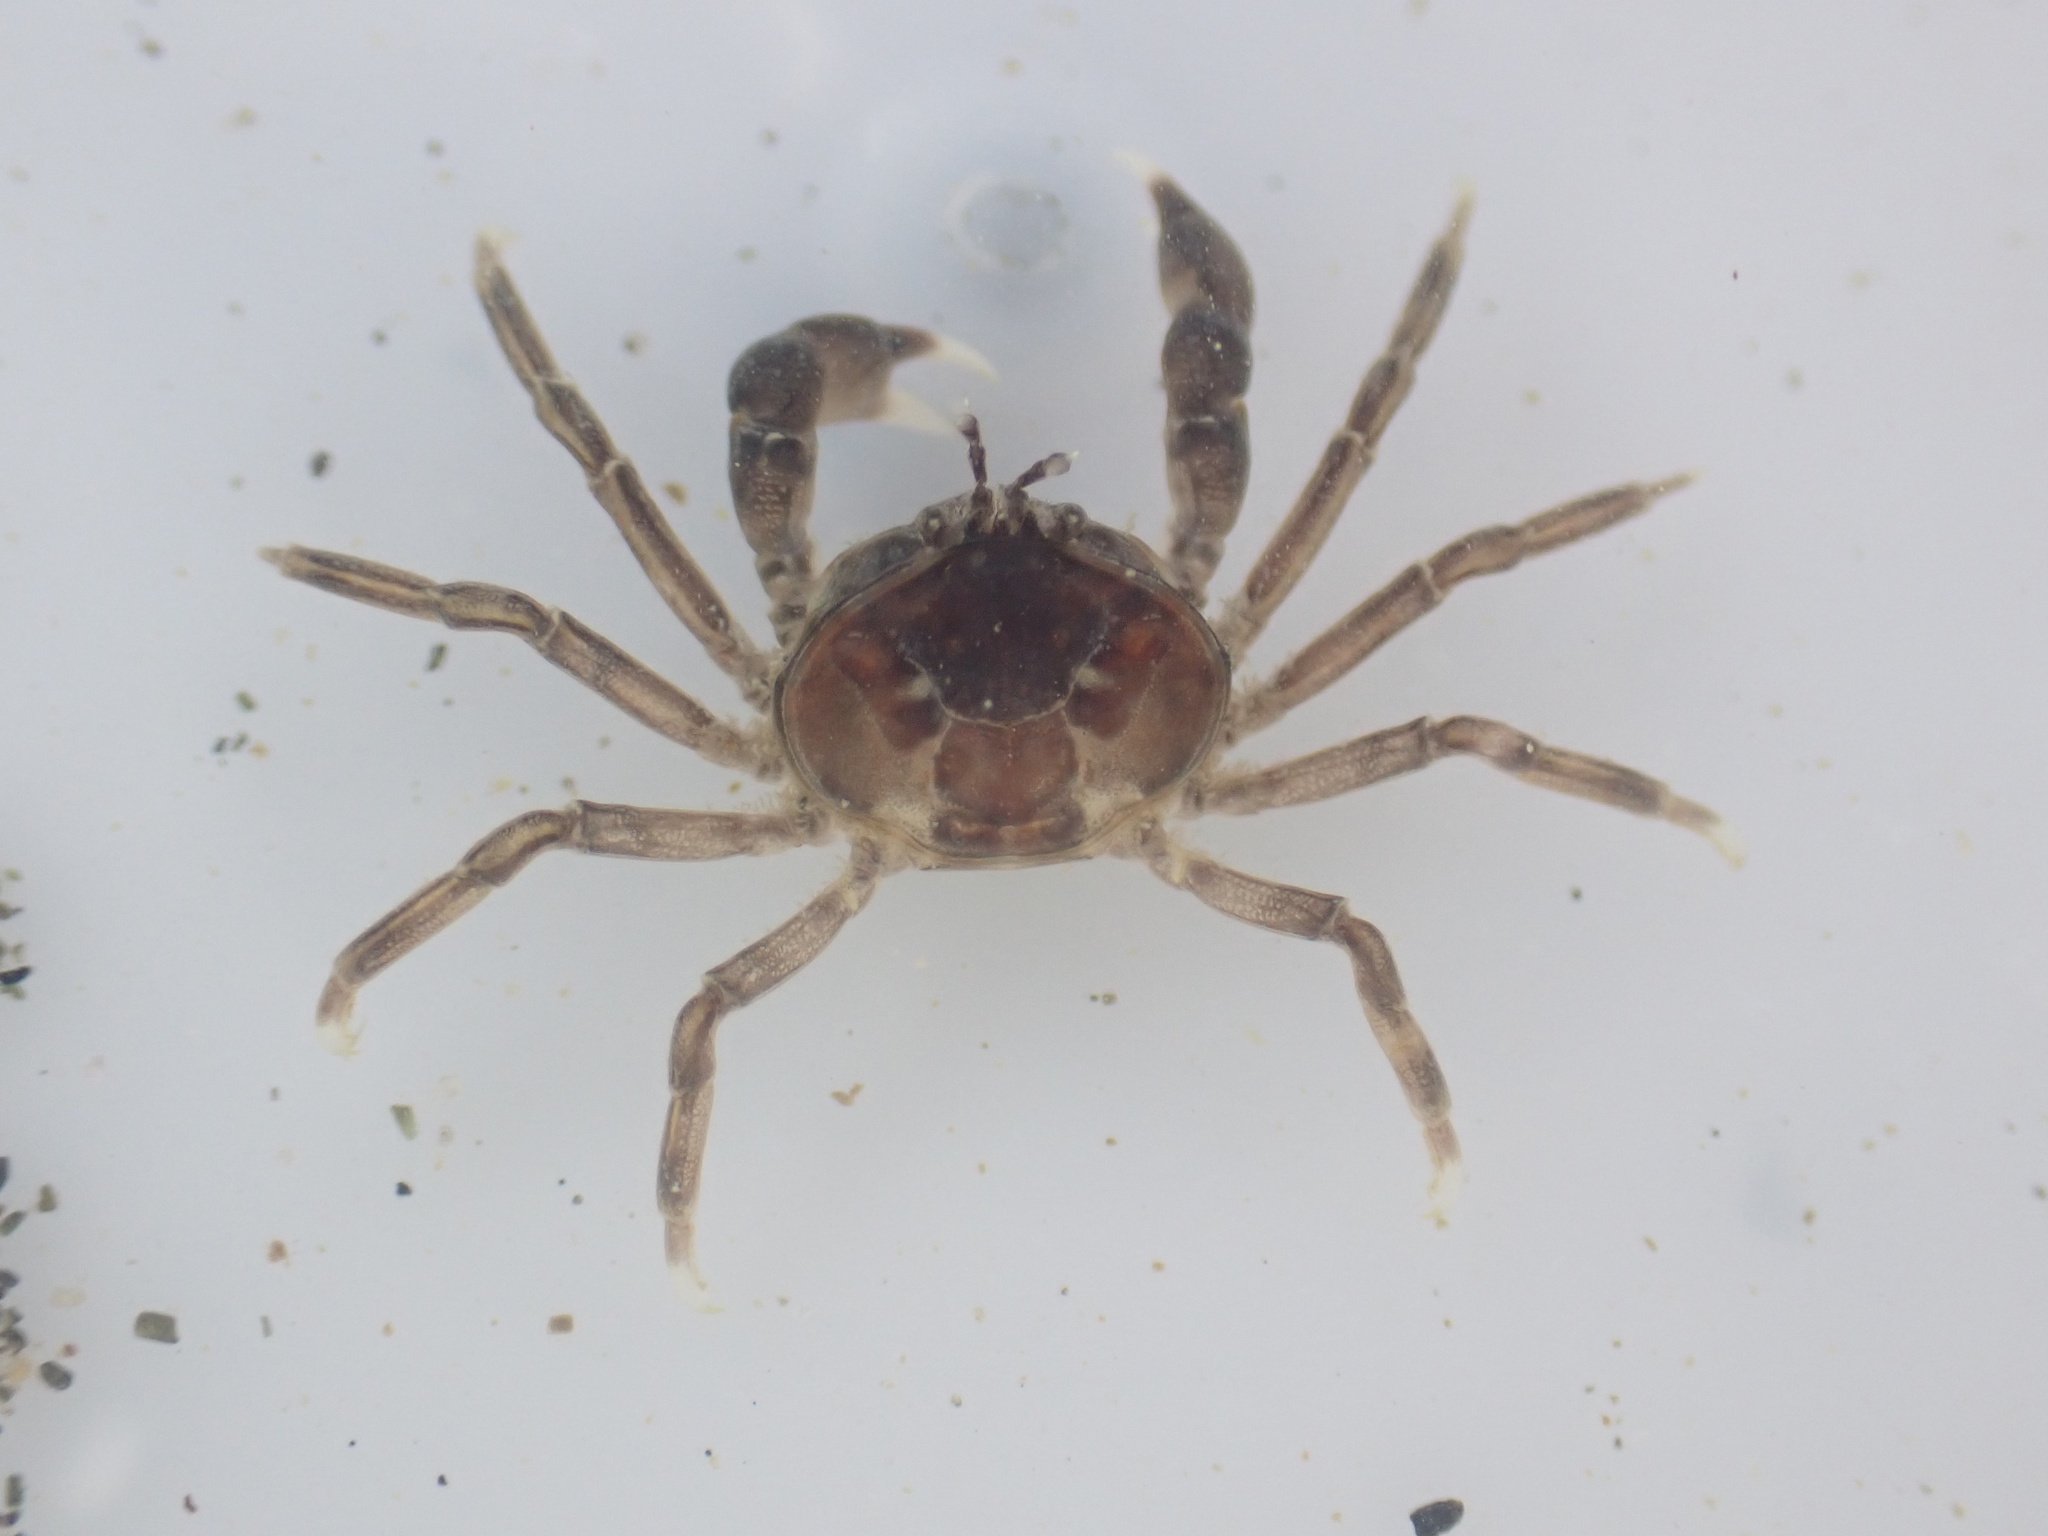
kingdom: Animalia
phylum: Arthropoda
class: Malacostraca
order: Decapoda
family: Hymenosomatidae
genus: Halicarcinus
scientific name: Halicarcinus quoyi
